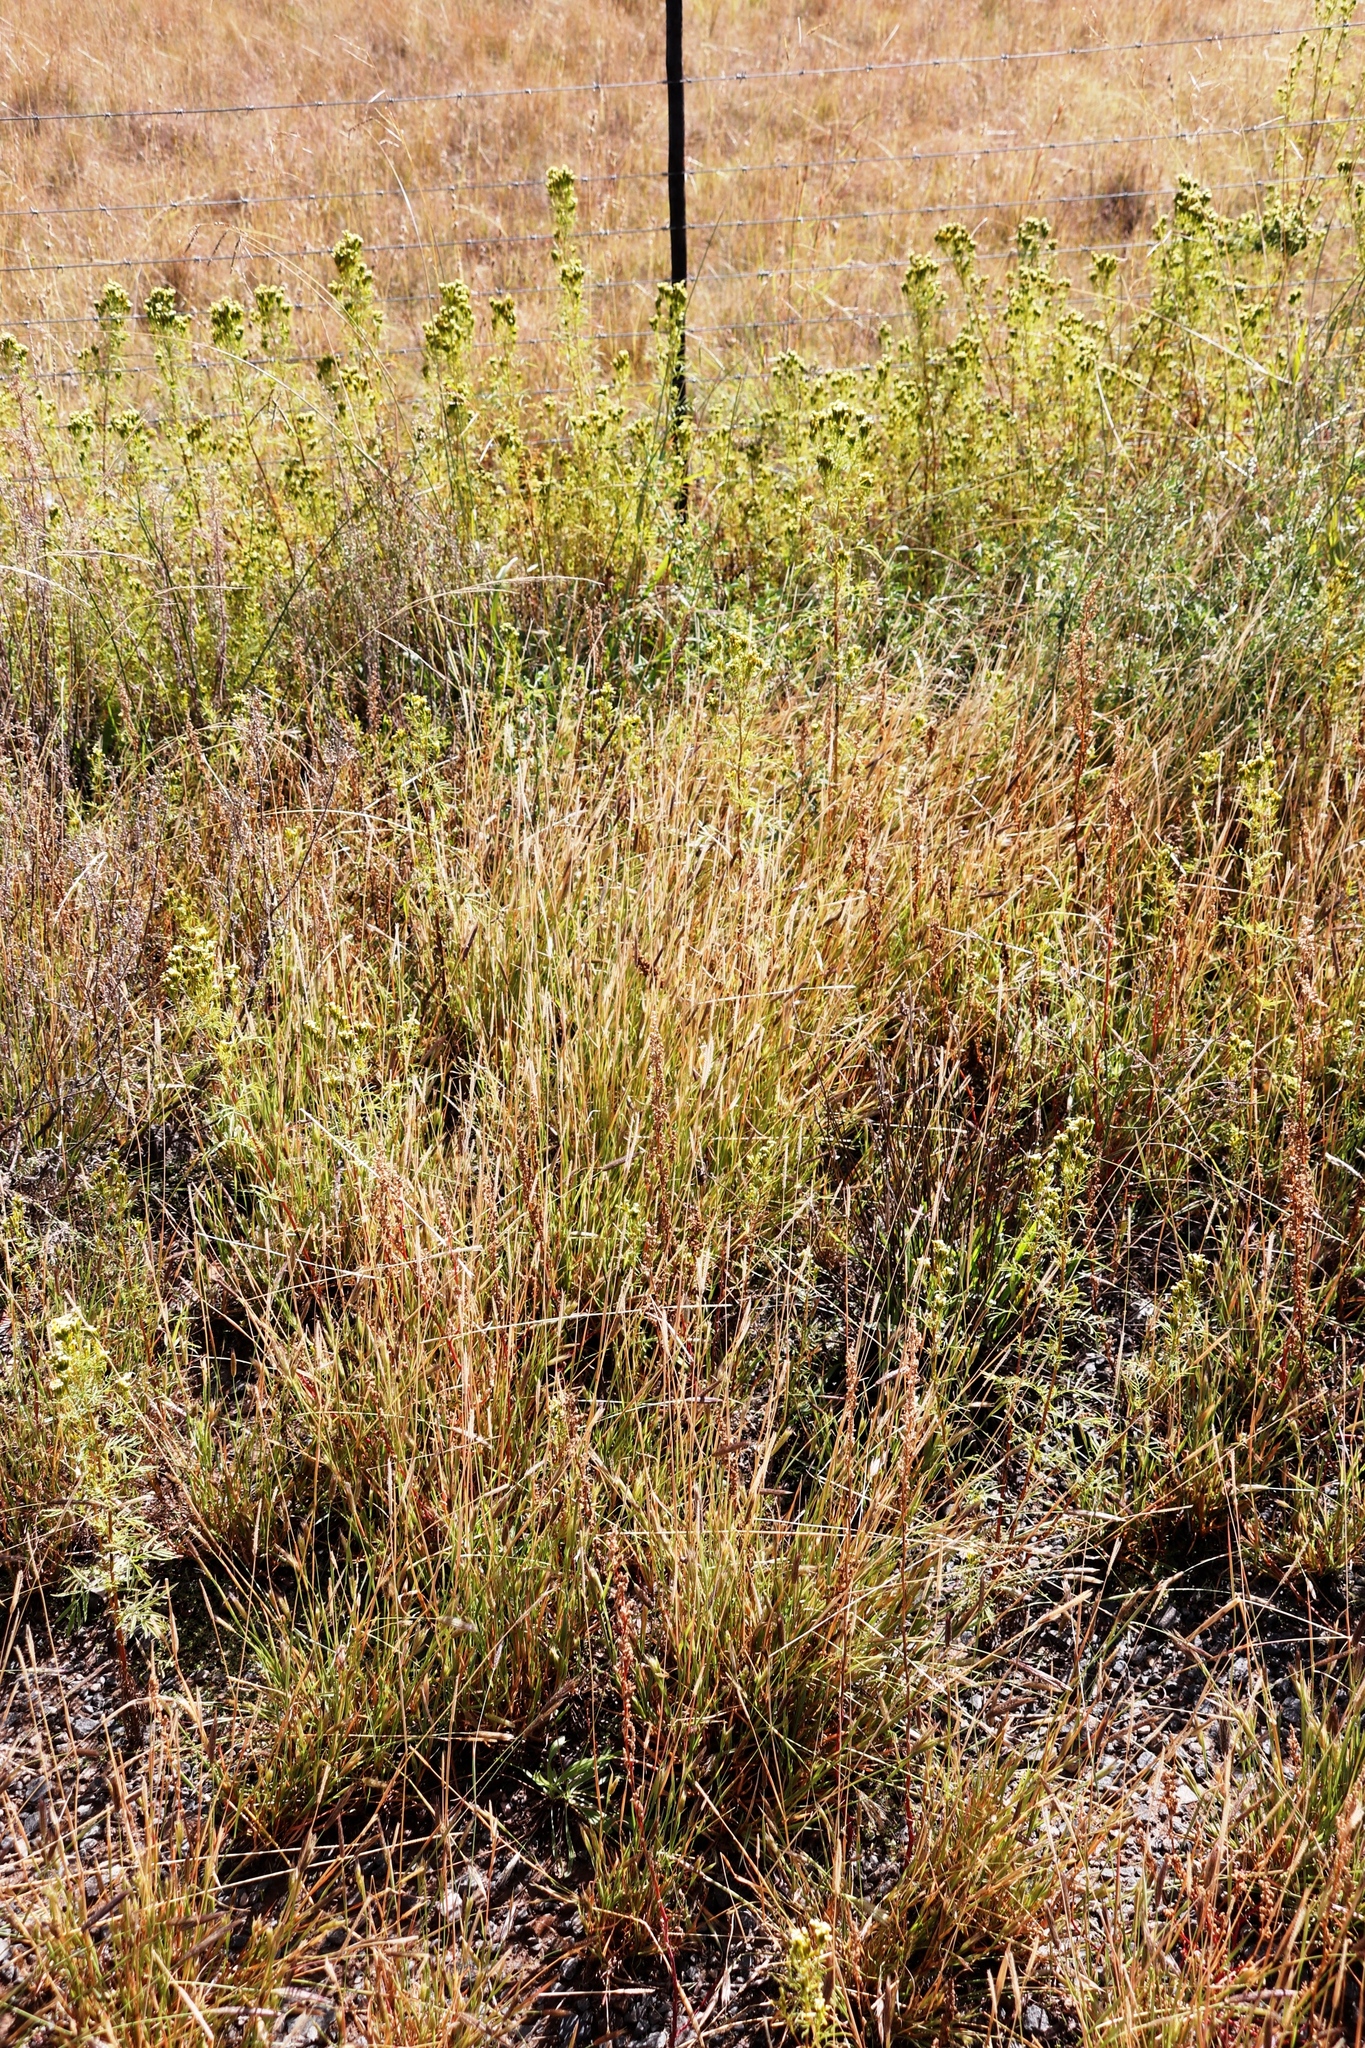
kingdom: Plantae
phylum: Tracheophyta
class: Liliopsida
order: Poales
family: Poaceae
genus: Chloris
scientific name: Chloris virgata
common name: Feathery rhodes-grass
